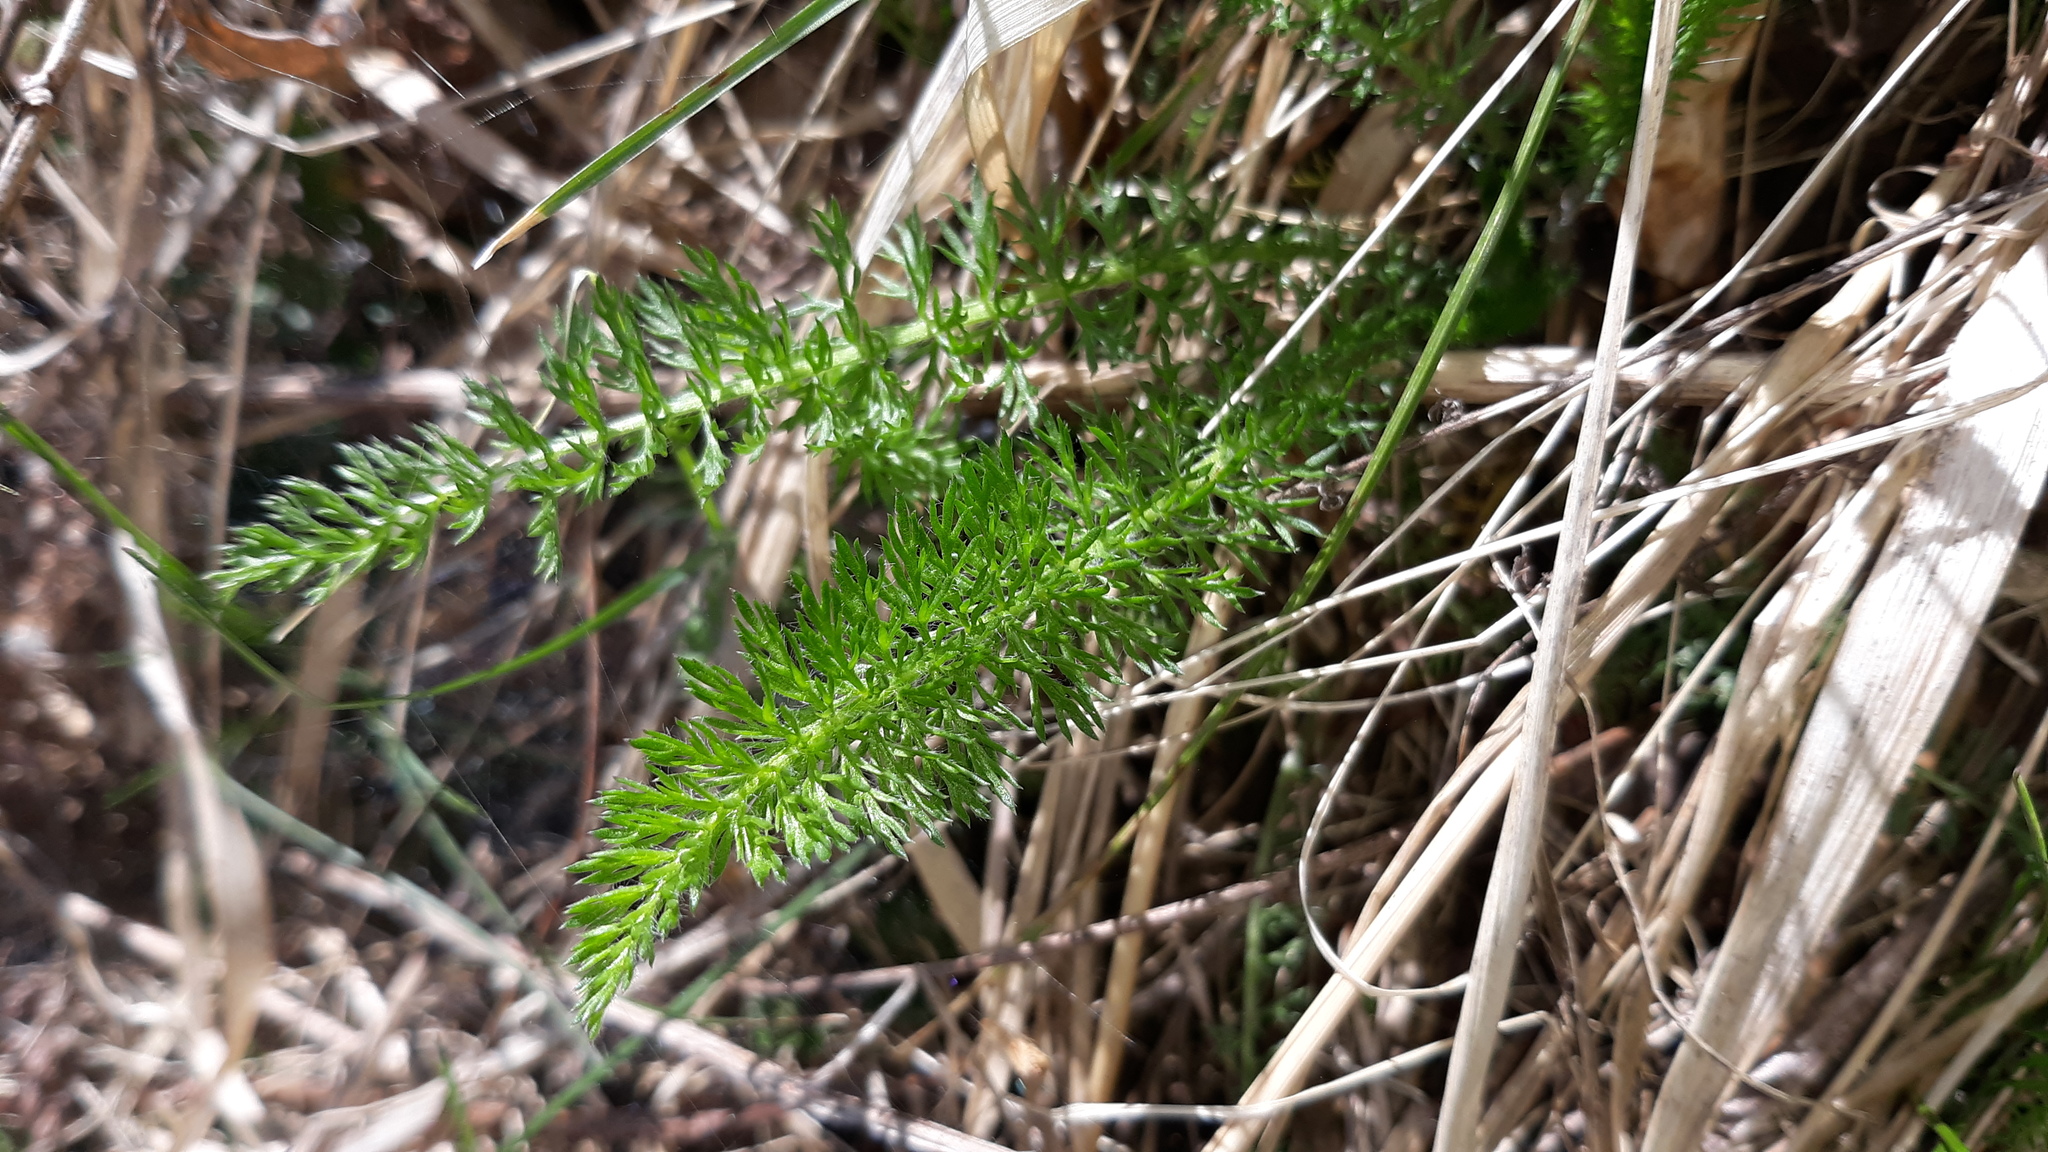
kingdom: Plantae
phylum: Tracheophyta
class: Magnoliopsida
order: Asterales
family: Asteraceae
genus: Achillea
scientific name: Achillea millefolium
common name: Yarrow
